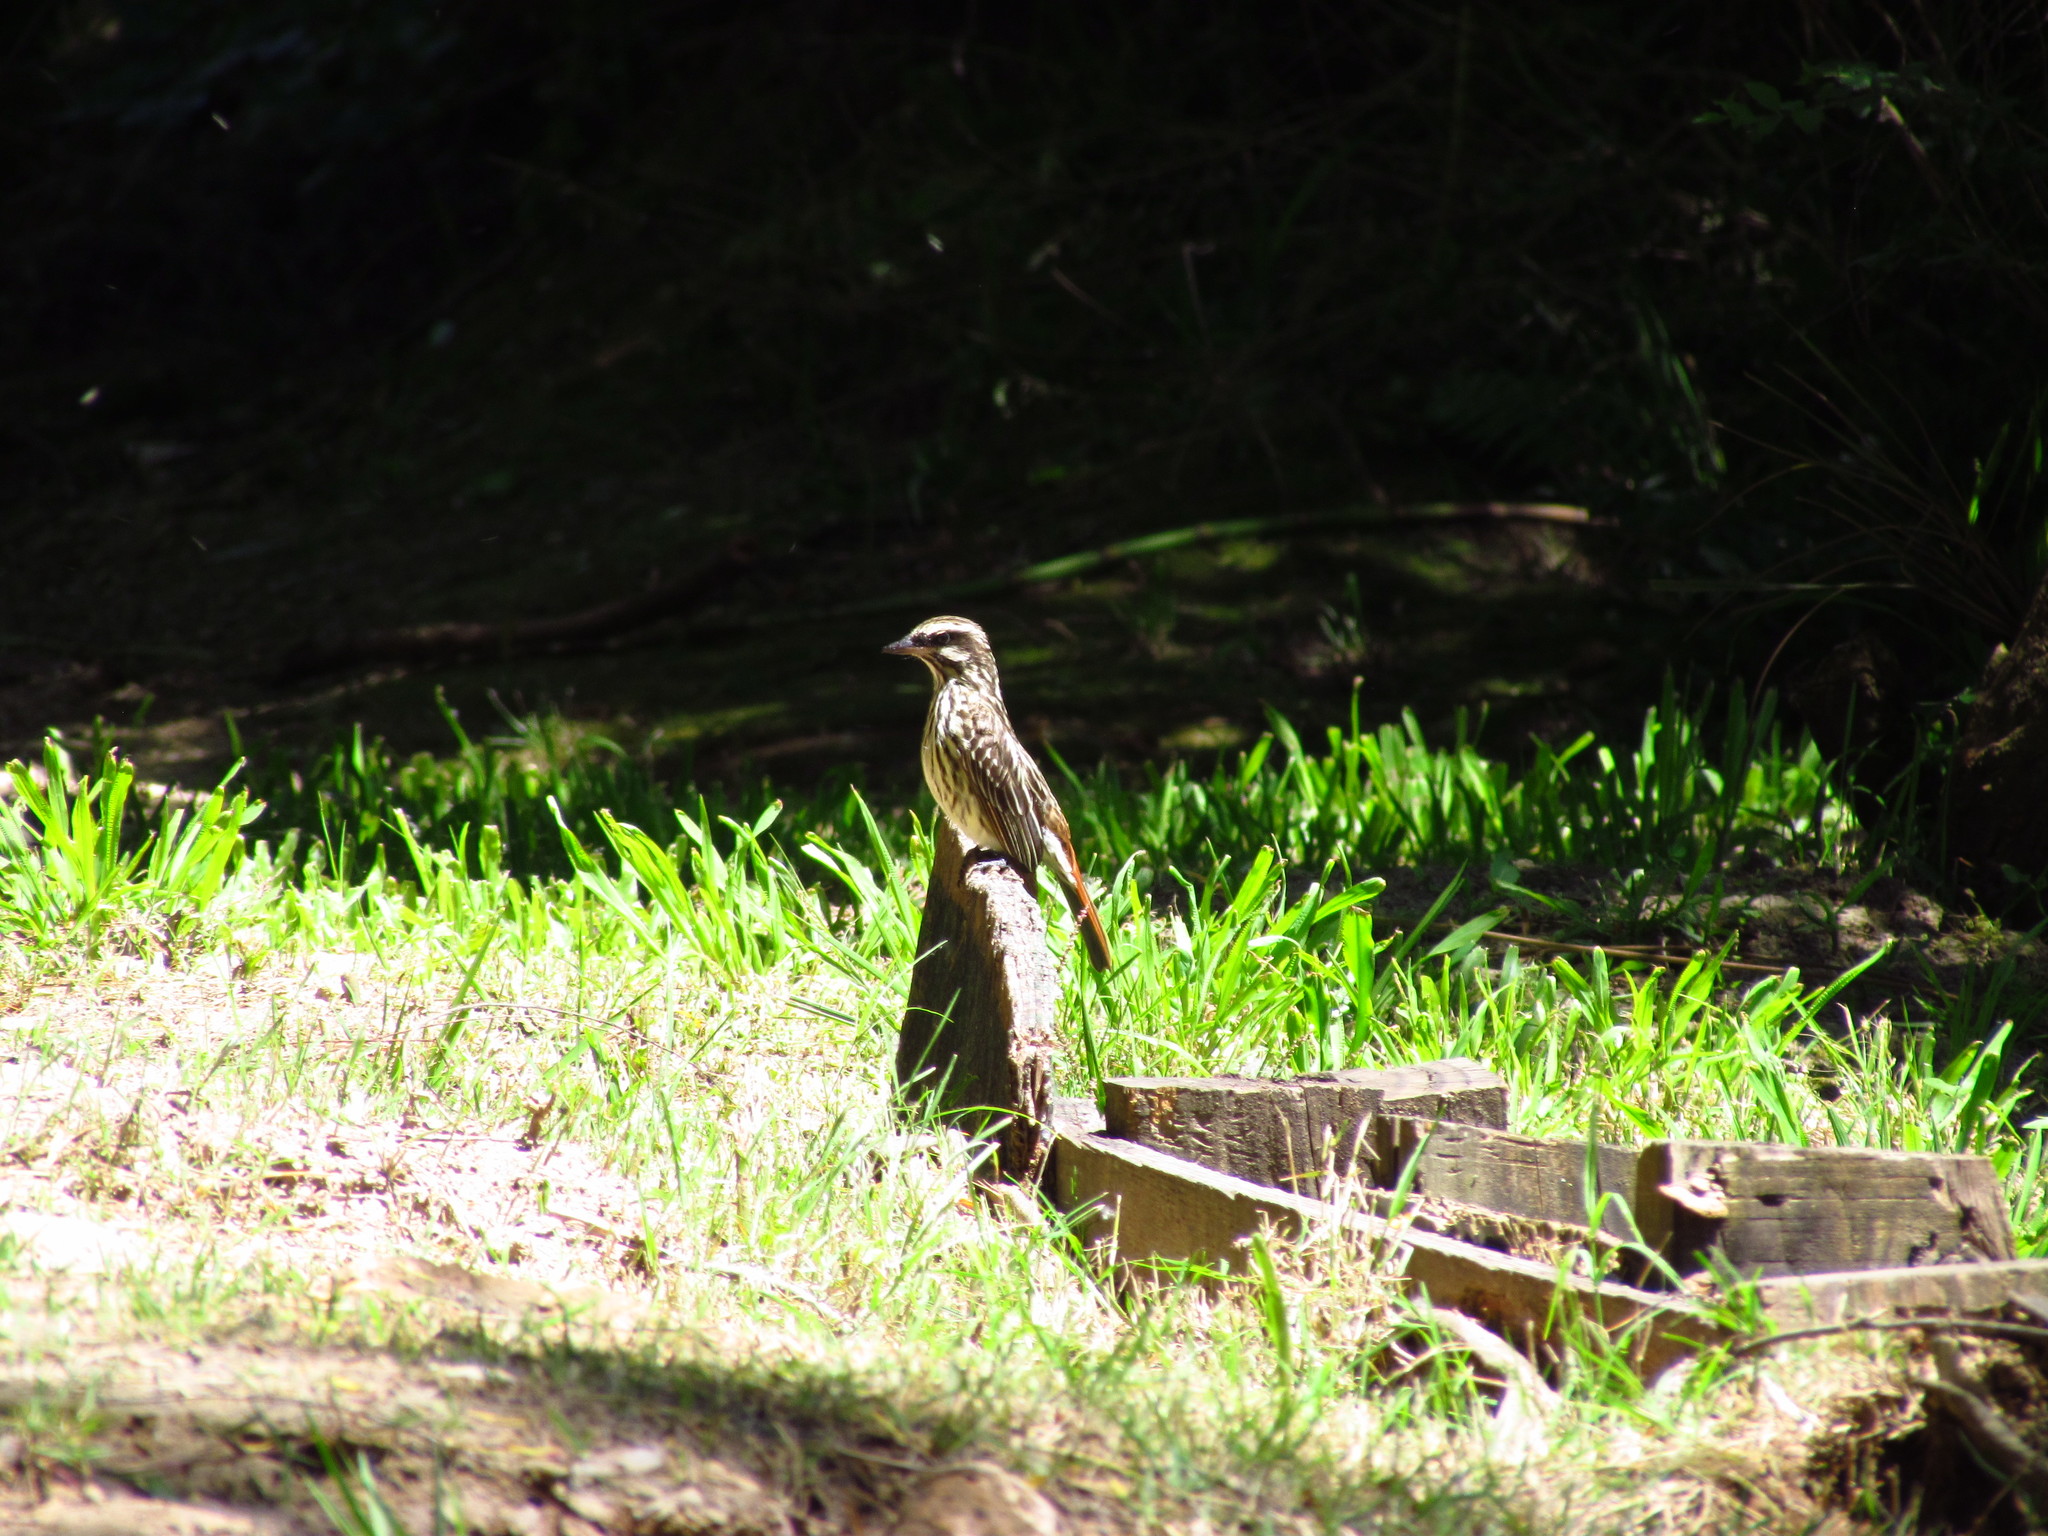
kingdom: Animalia
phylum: Chordata
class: Aves
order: Passeriformes
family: Tyrannidae
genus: Myiodynastes
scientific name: Myiodynastes maculatus
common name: Streaked flycatcher
